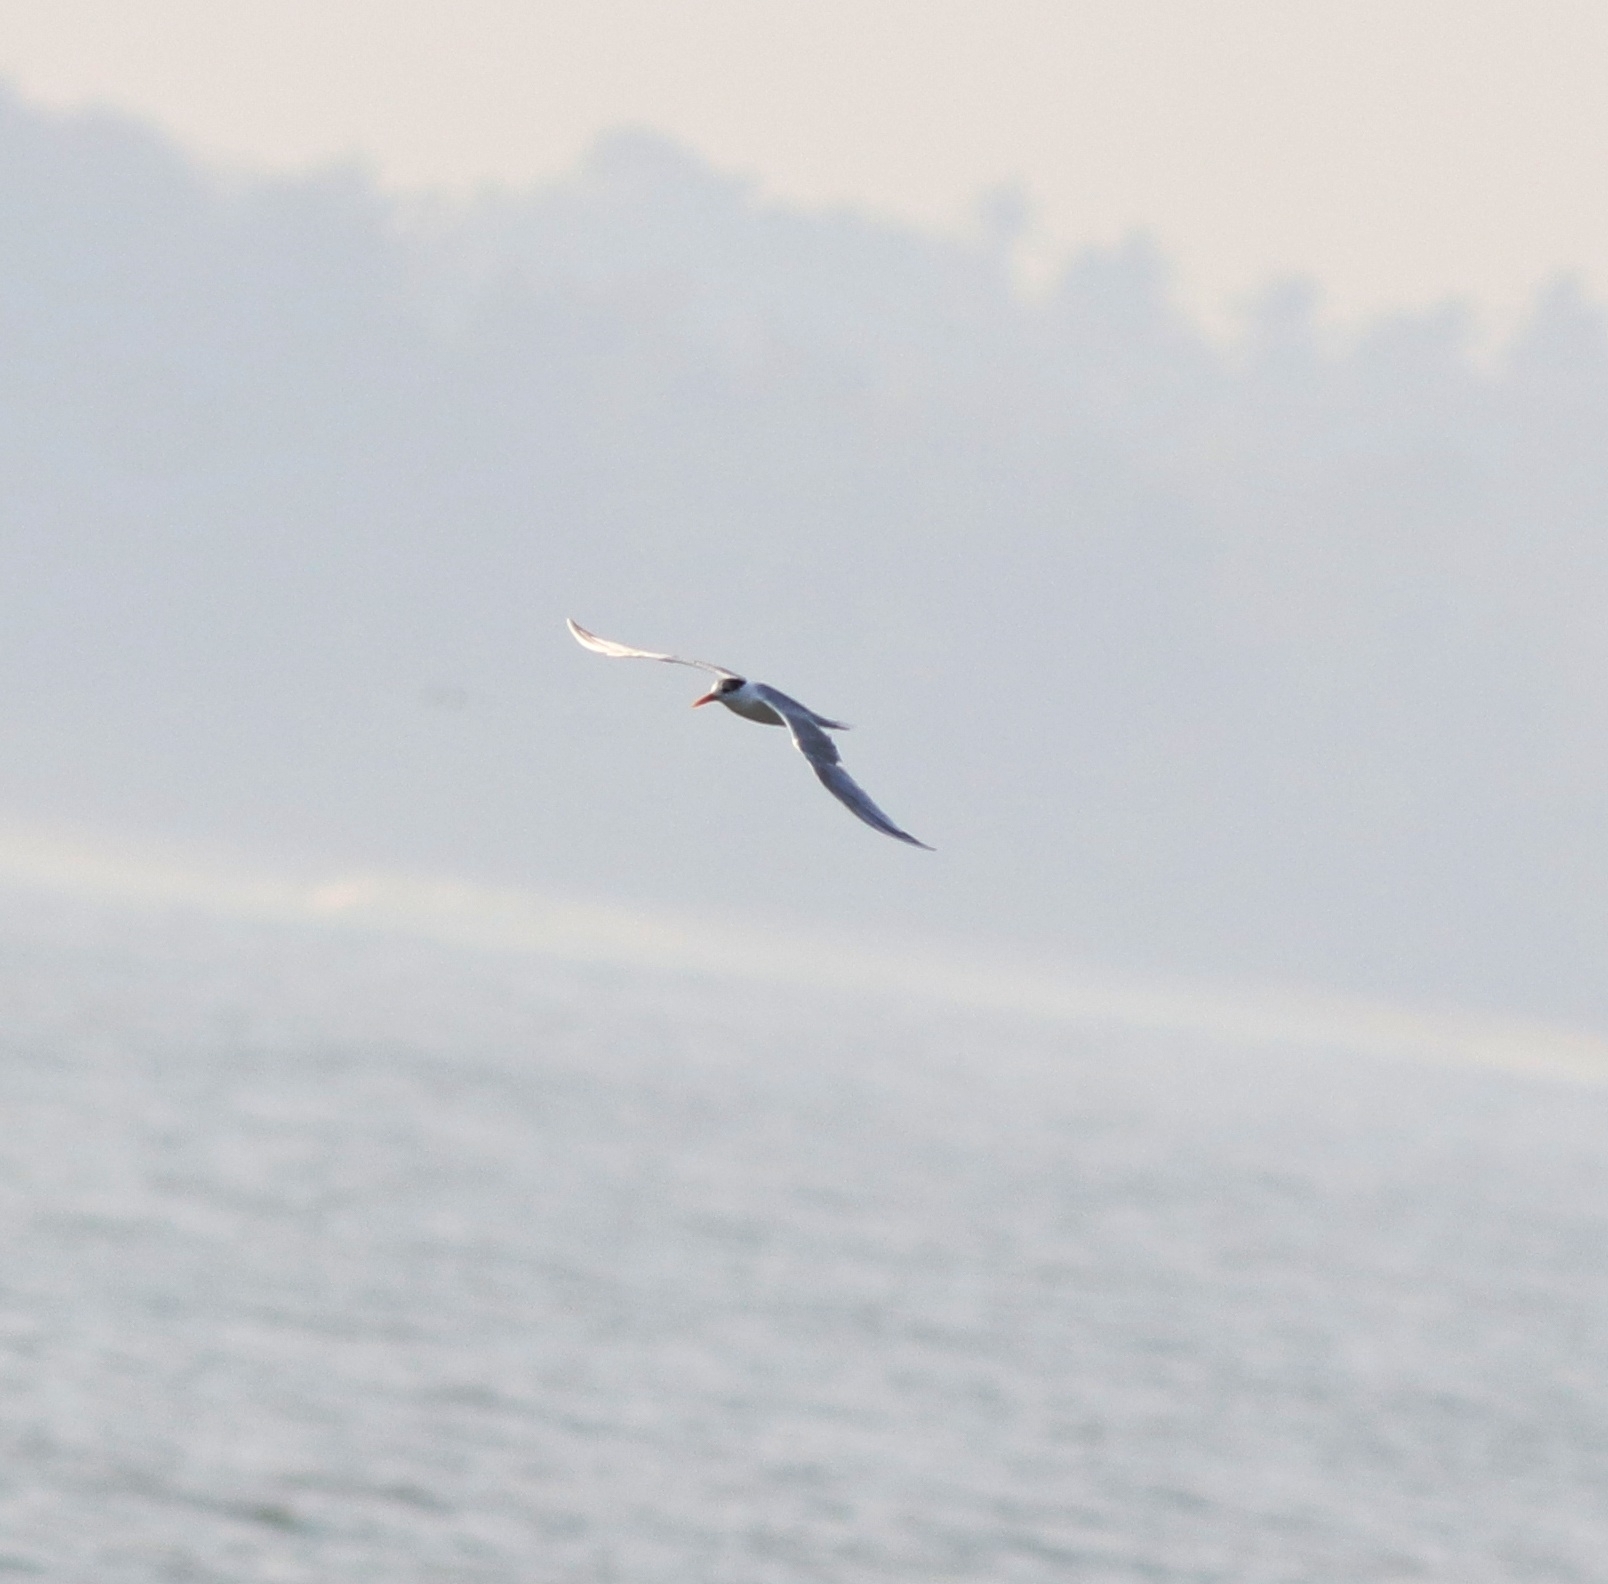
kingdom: Animalia
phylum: Chordata
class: Aves
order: Charadriiformes
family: Laridae
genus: Thalasseus
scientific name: Thalasseus bengalensis
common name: Lesser crested tern
